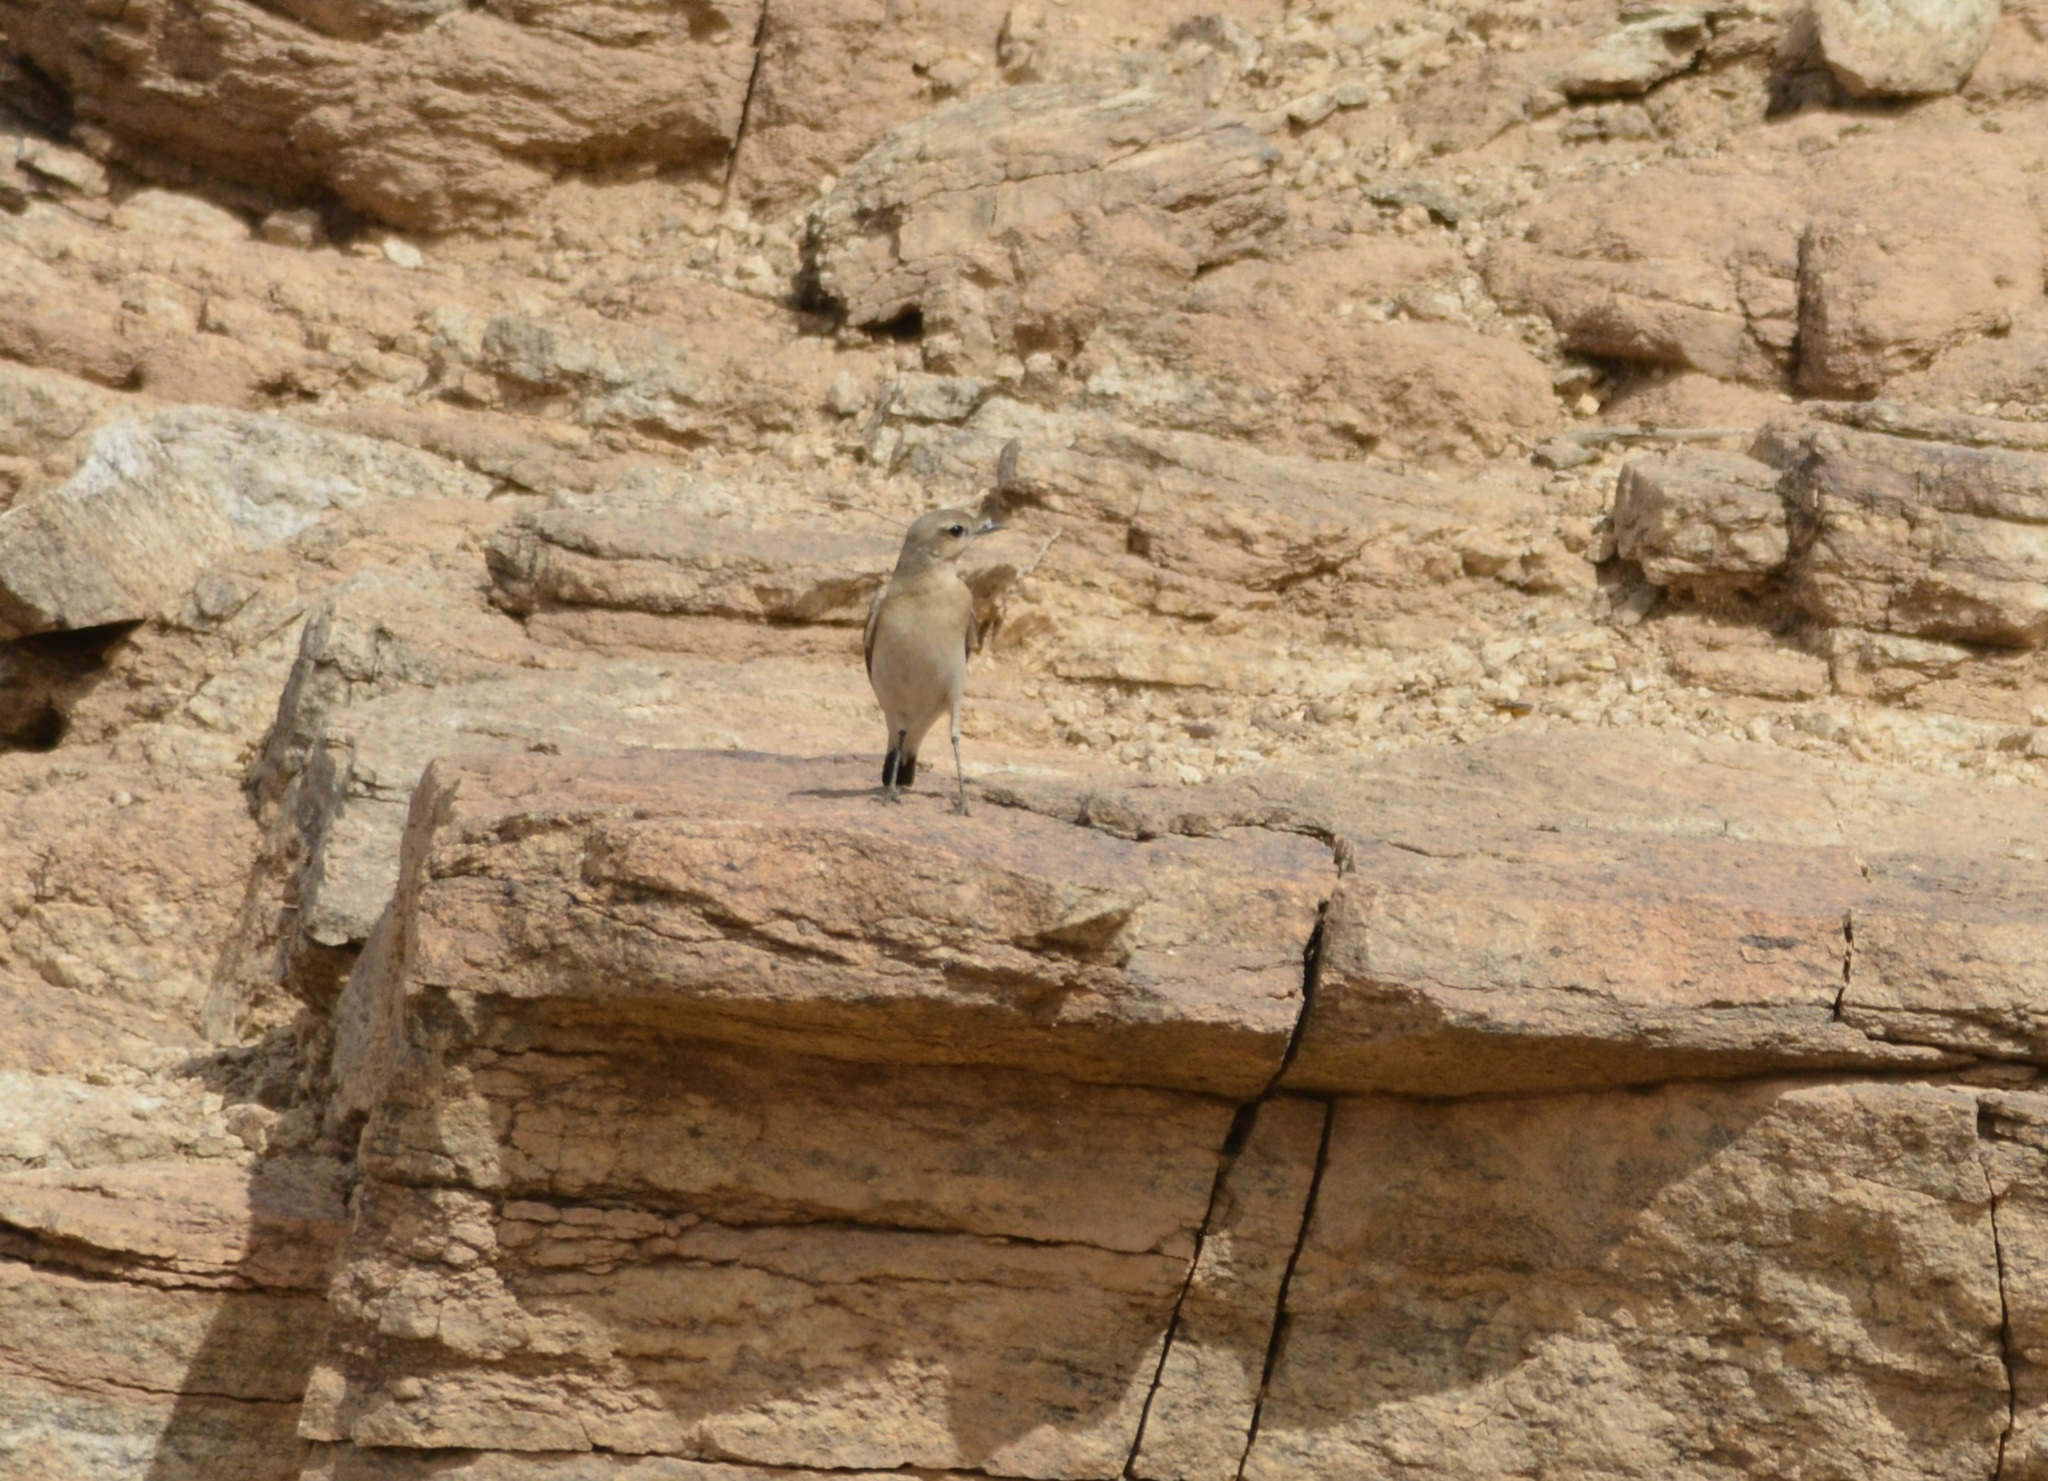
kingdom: Animalia
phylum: Chordata
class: Aves
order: Passeriformes
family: Muscicapidae
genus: Oenanthe
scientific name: Oenanthe isabellina
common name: Isabelline wheatear
